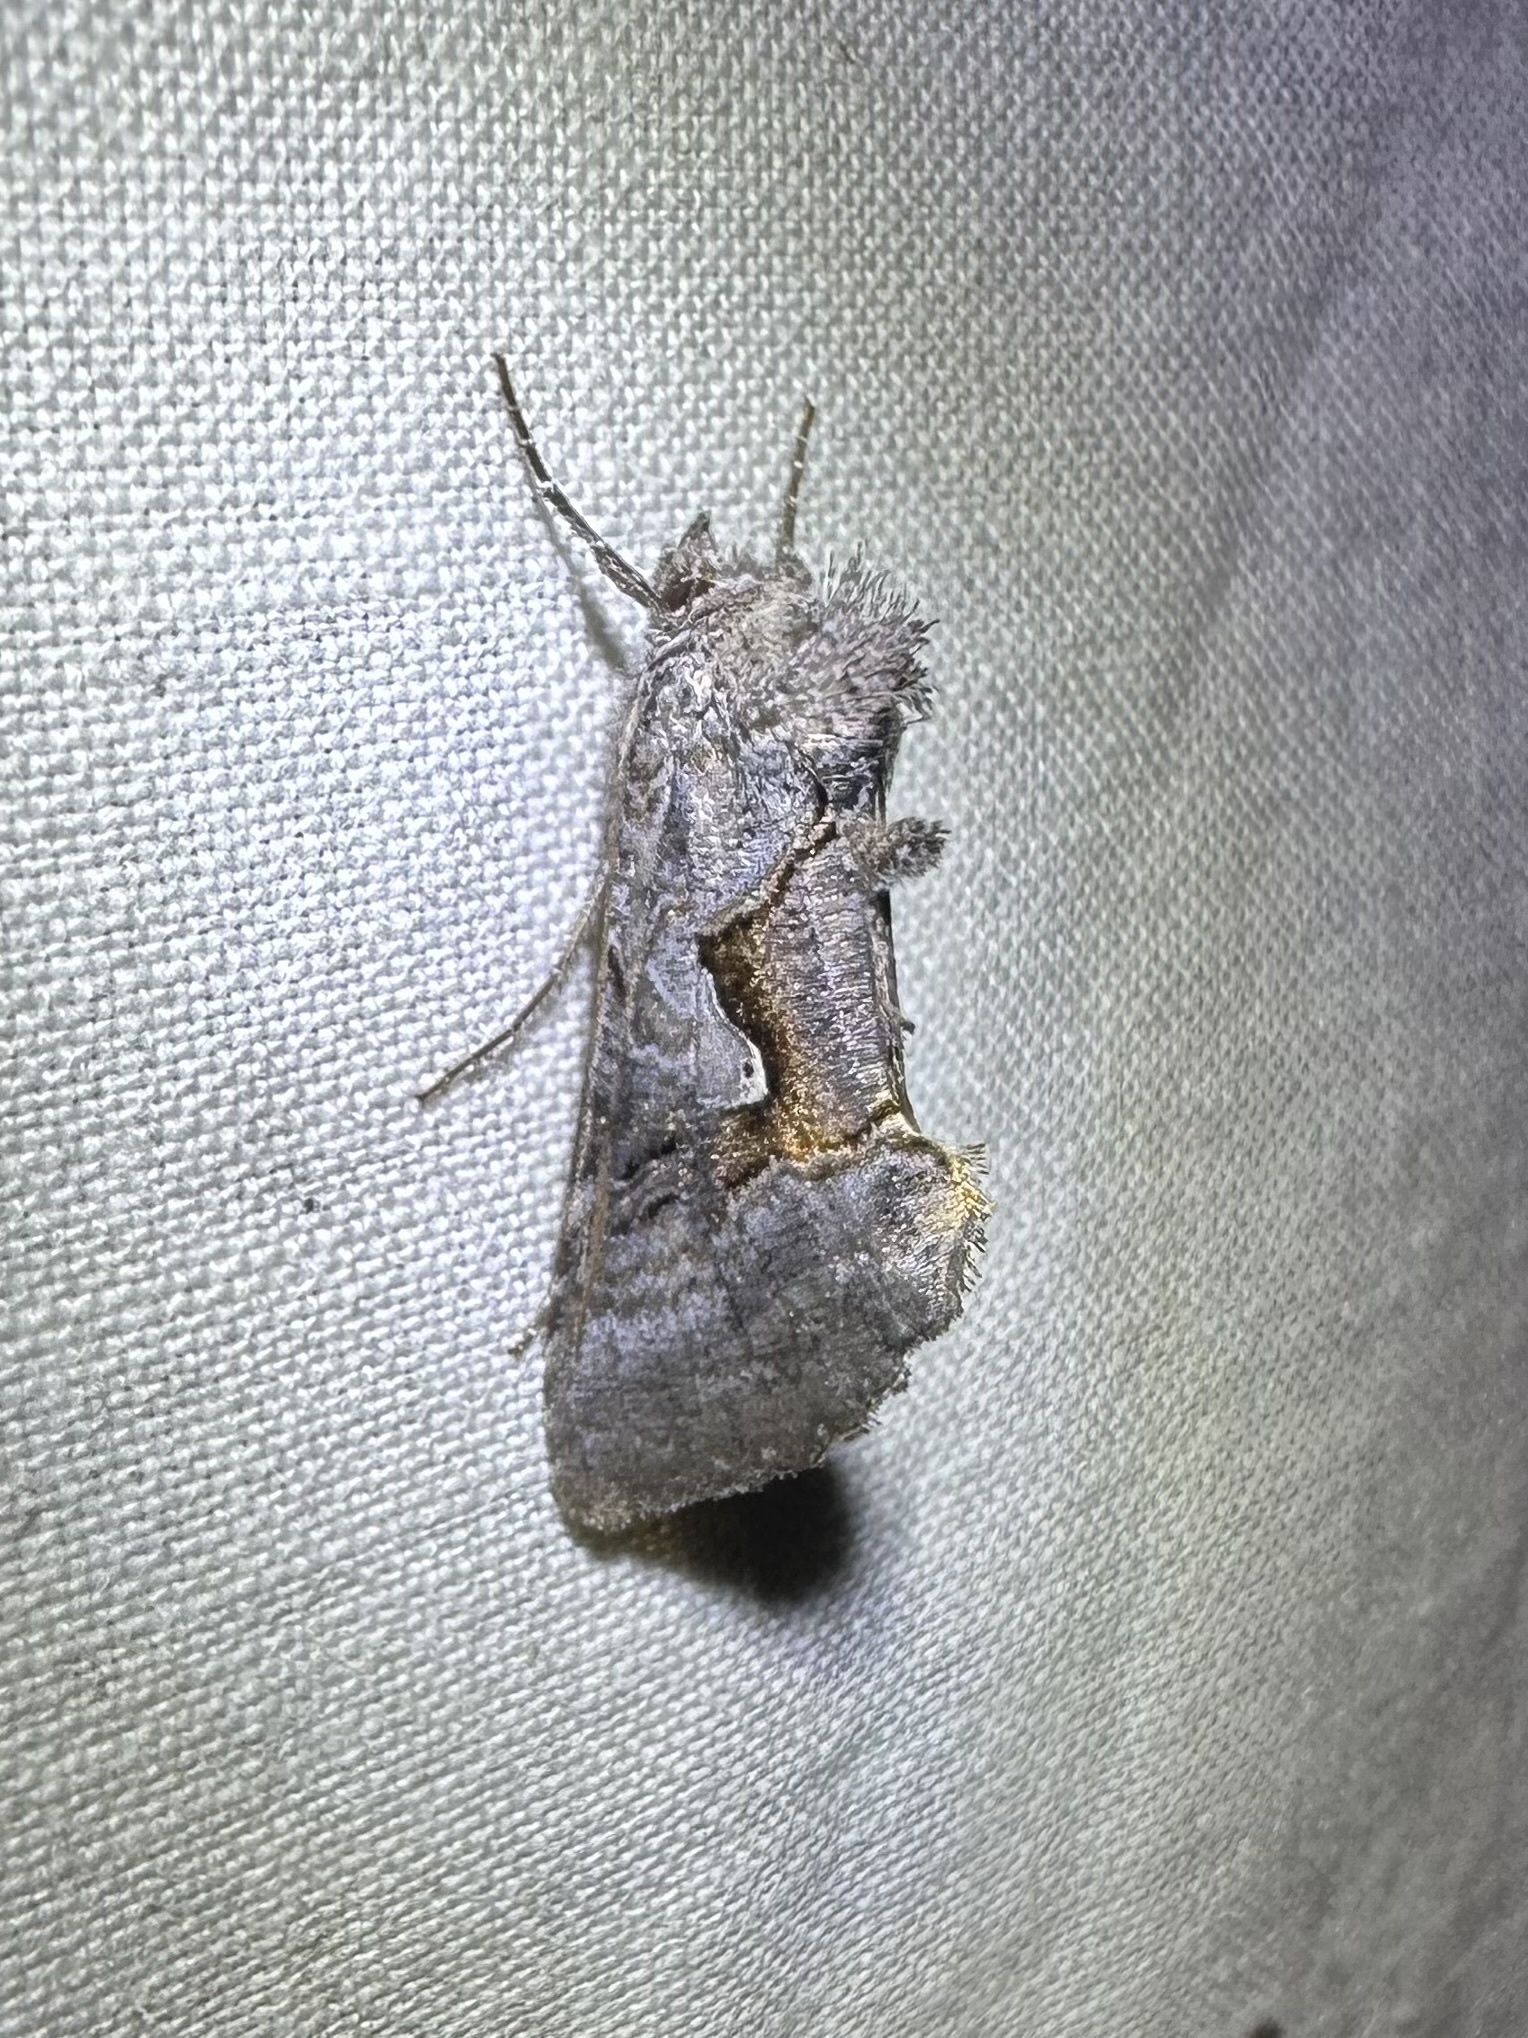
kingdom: Animalia
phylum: Arthropoda
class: Insecta
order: Lepidoptera
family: Noctuidae
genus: Syngrapha
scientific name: Syngrapha epigaea
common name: Epigaea looper moth
